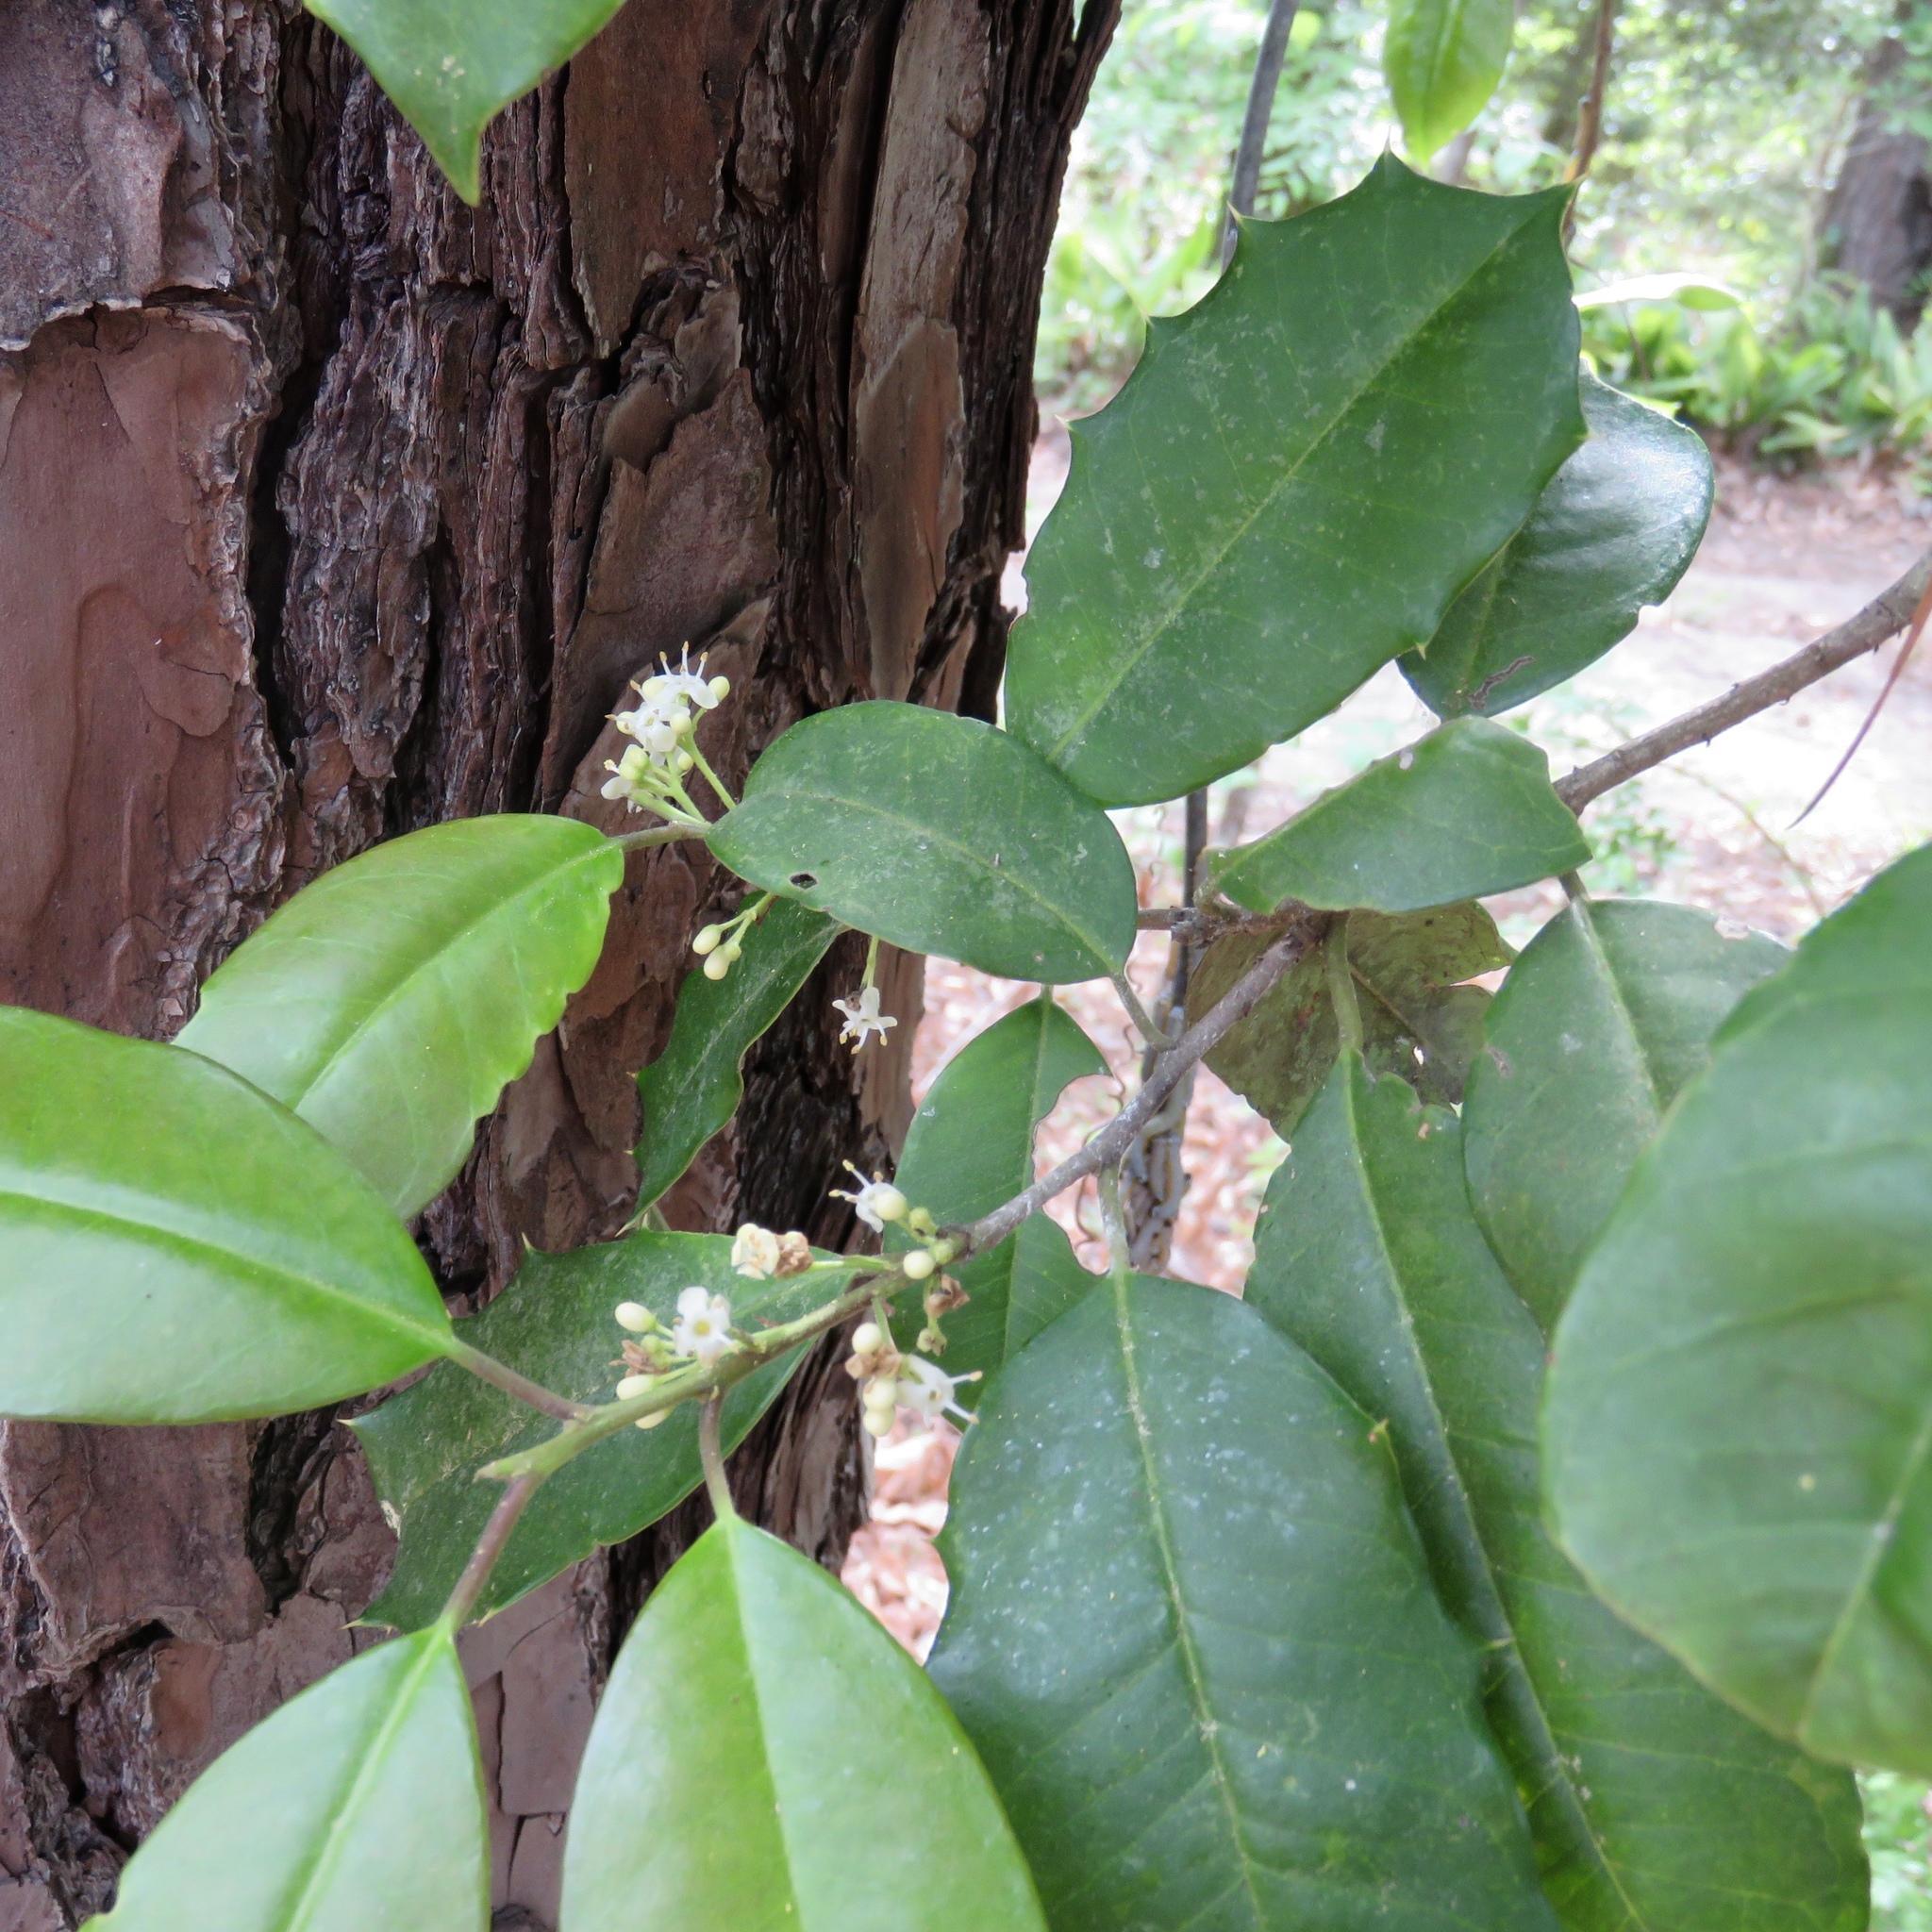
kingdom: Plantae
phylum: Tracheophyta
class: Magnoliopsida
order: Aquifoliales
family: Aquifoliaceae
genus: Ilex
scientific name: Ilex opaca
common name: American holly
